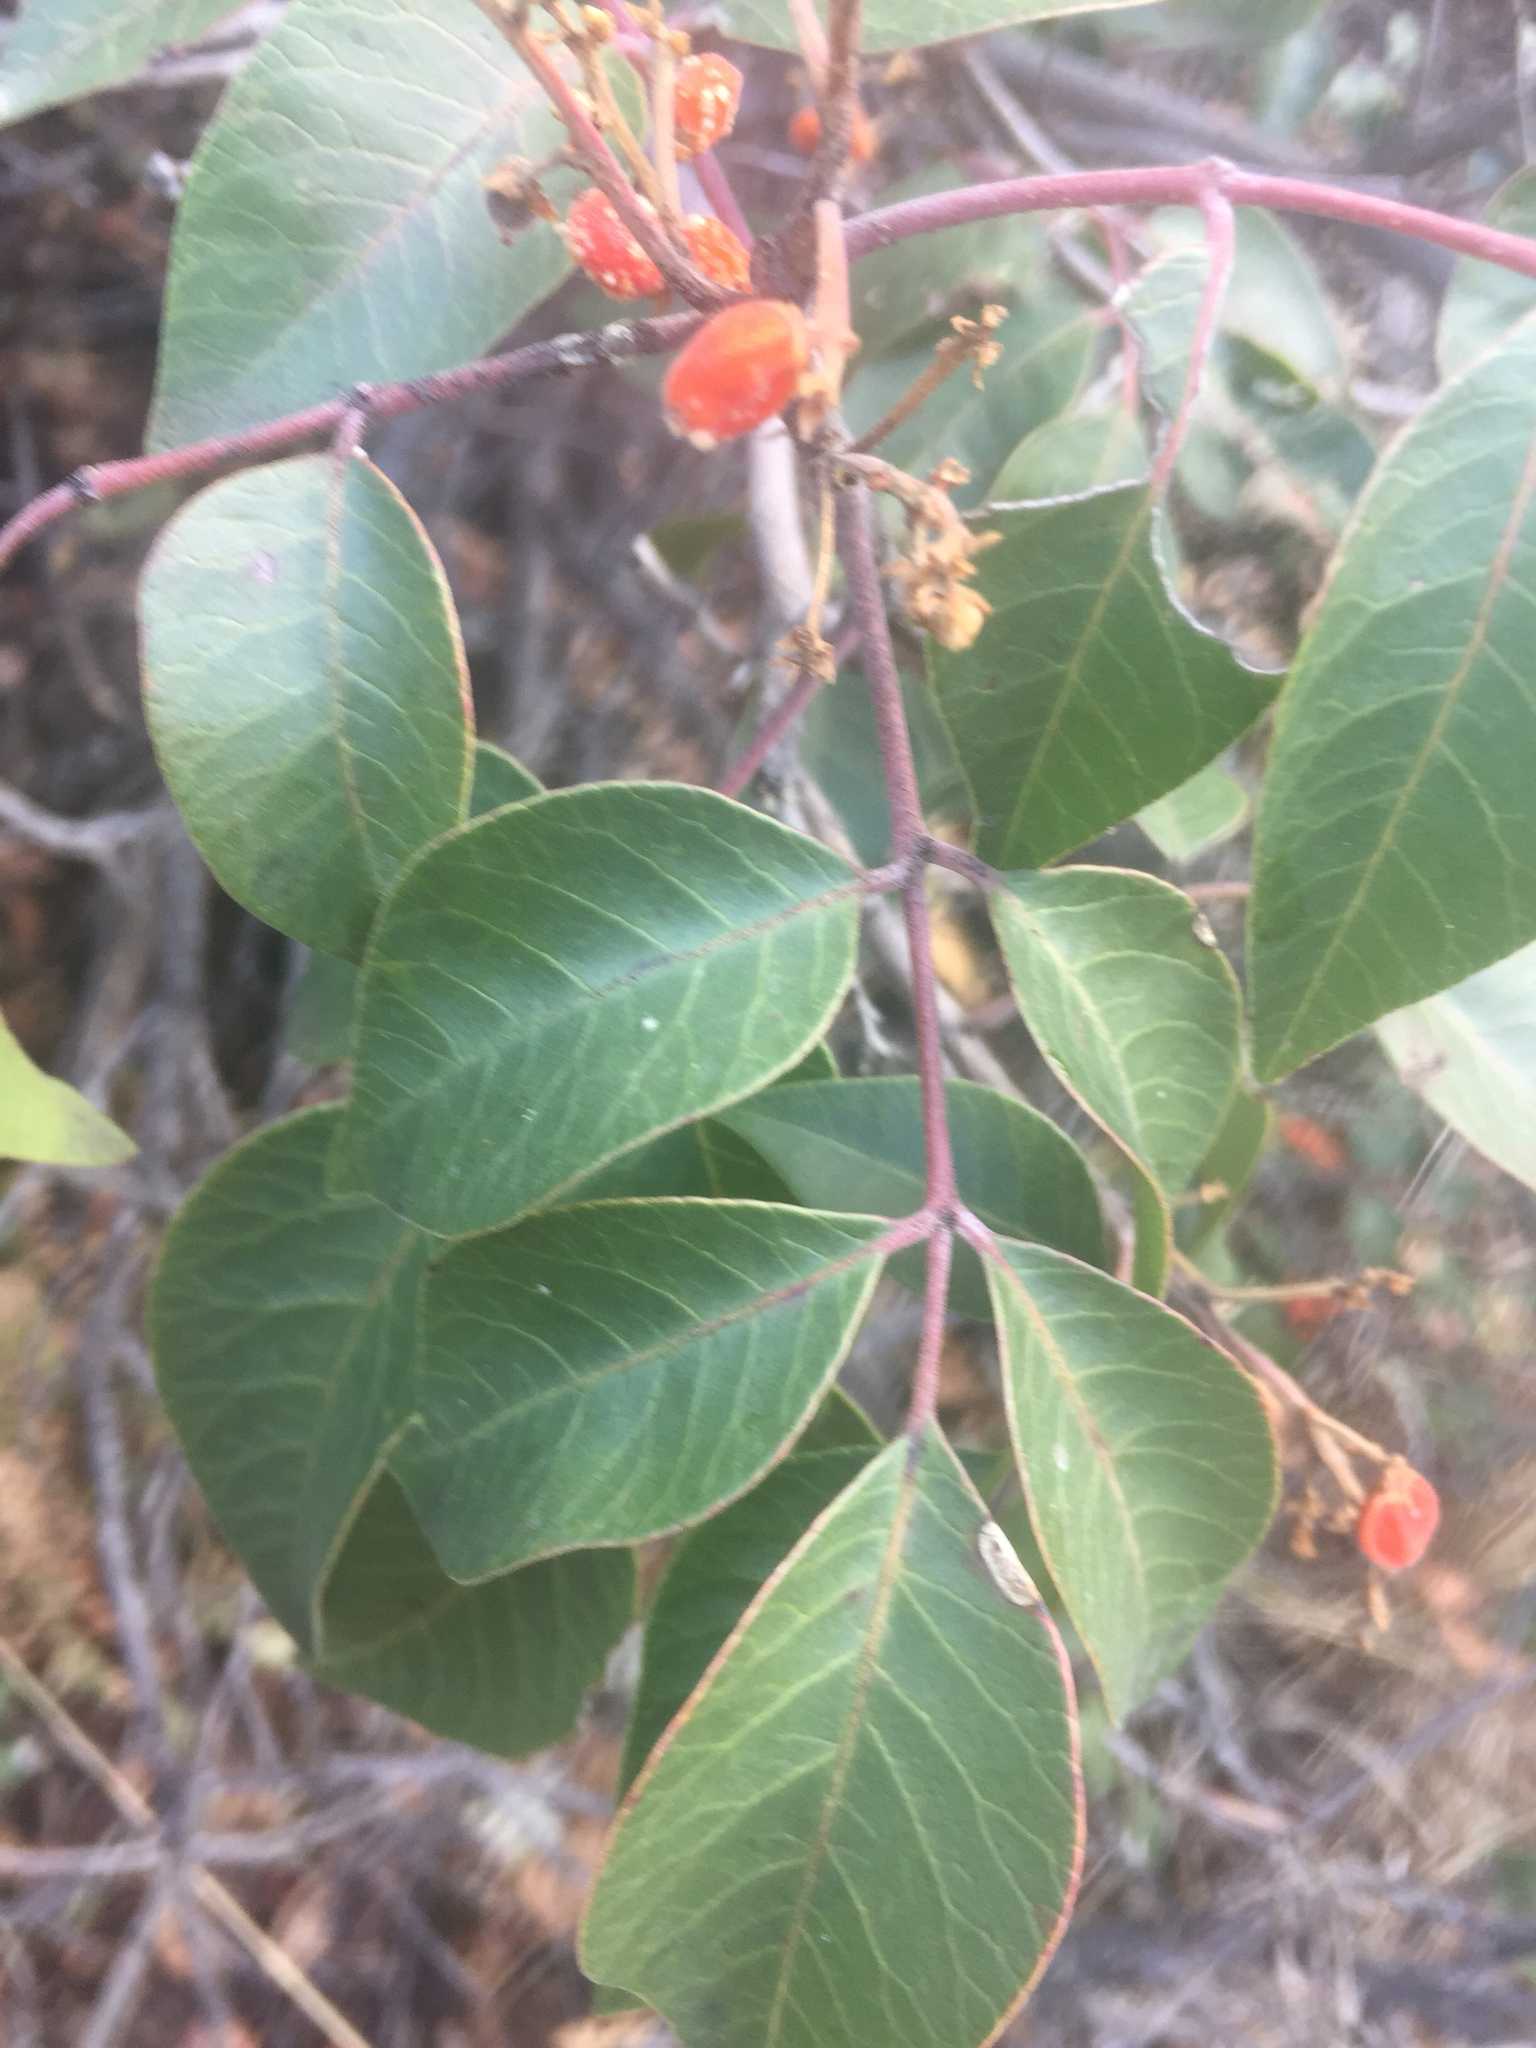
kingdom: Plantae
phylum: Tracheophyta
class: Magnoliopsida
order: Sapindales
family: Anacardiaceae
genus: Rhus
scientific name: Rhus virens
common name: Evergreen sumac
